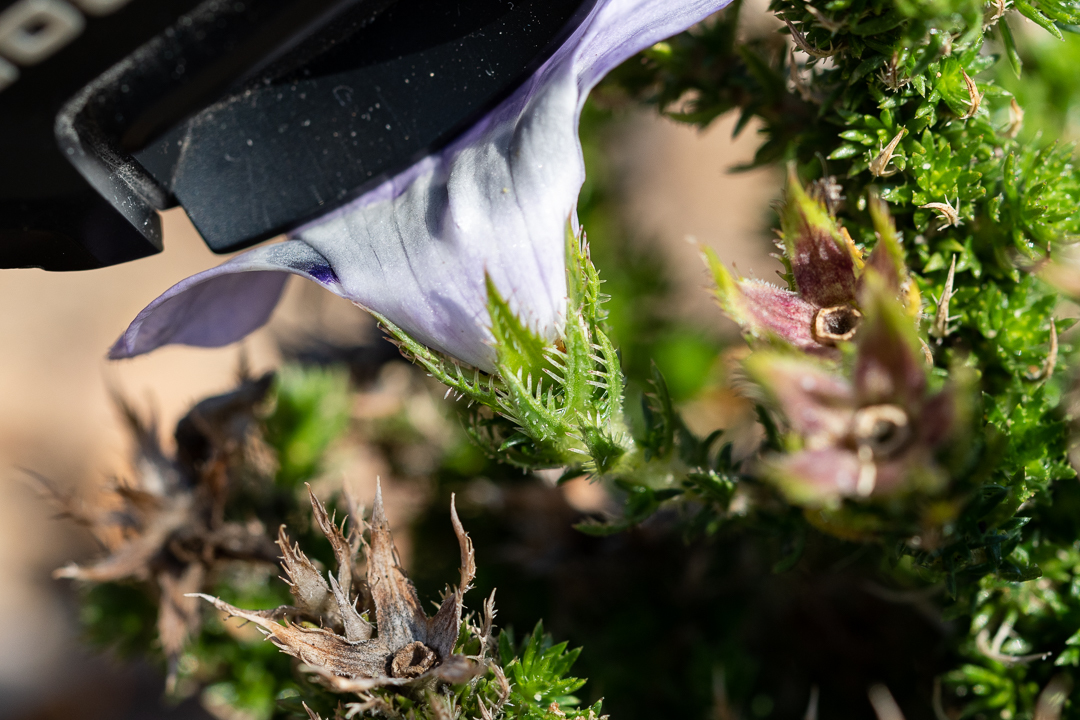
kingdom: Plantae
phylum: Tracheophyta
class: Magnoliopsida
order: Asterales
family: Campanulaceae
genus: Roella
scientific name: Roella ciliata
